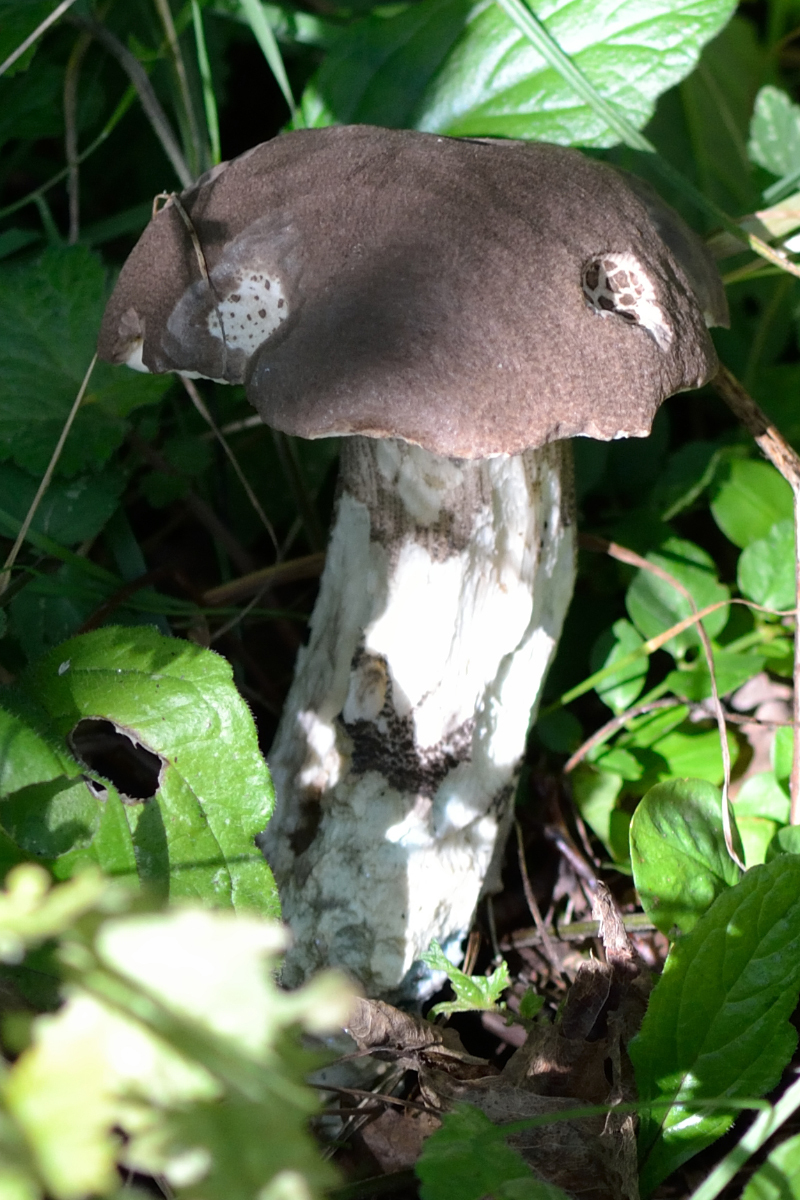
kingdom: Fungi
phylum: Basidiomycota
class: Agaricomycetes
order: Boletales
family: Boletaceae
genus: Leccinum
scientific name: Leccinum duriusculum
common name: Slate bolete
